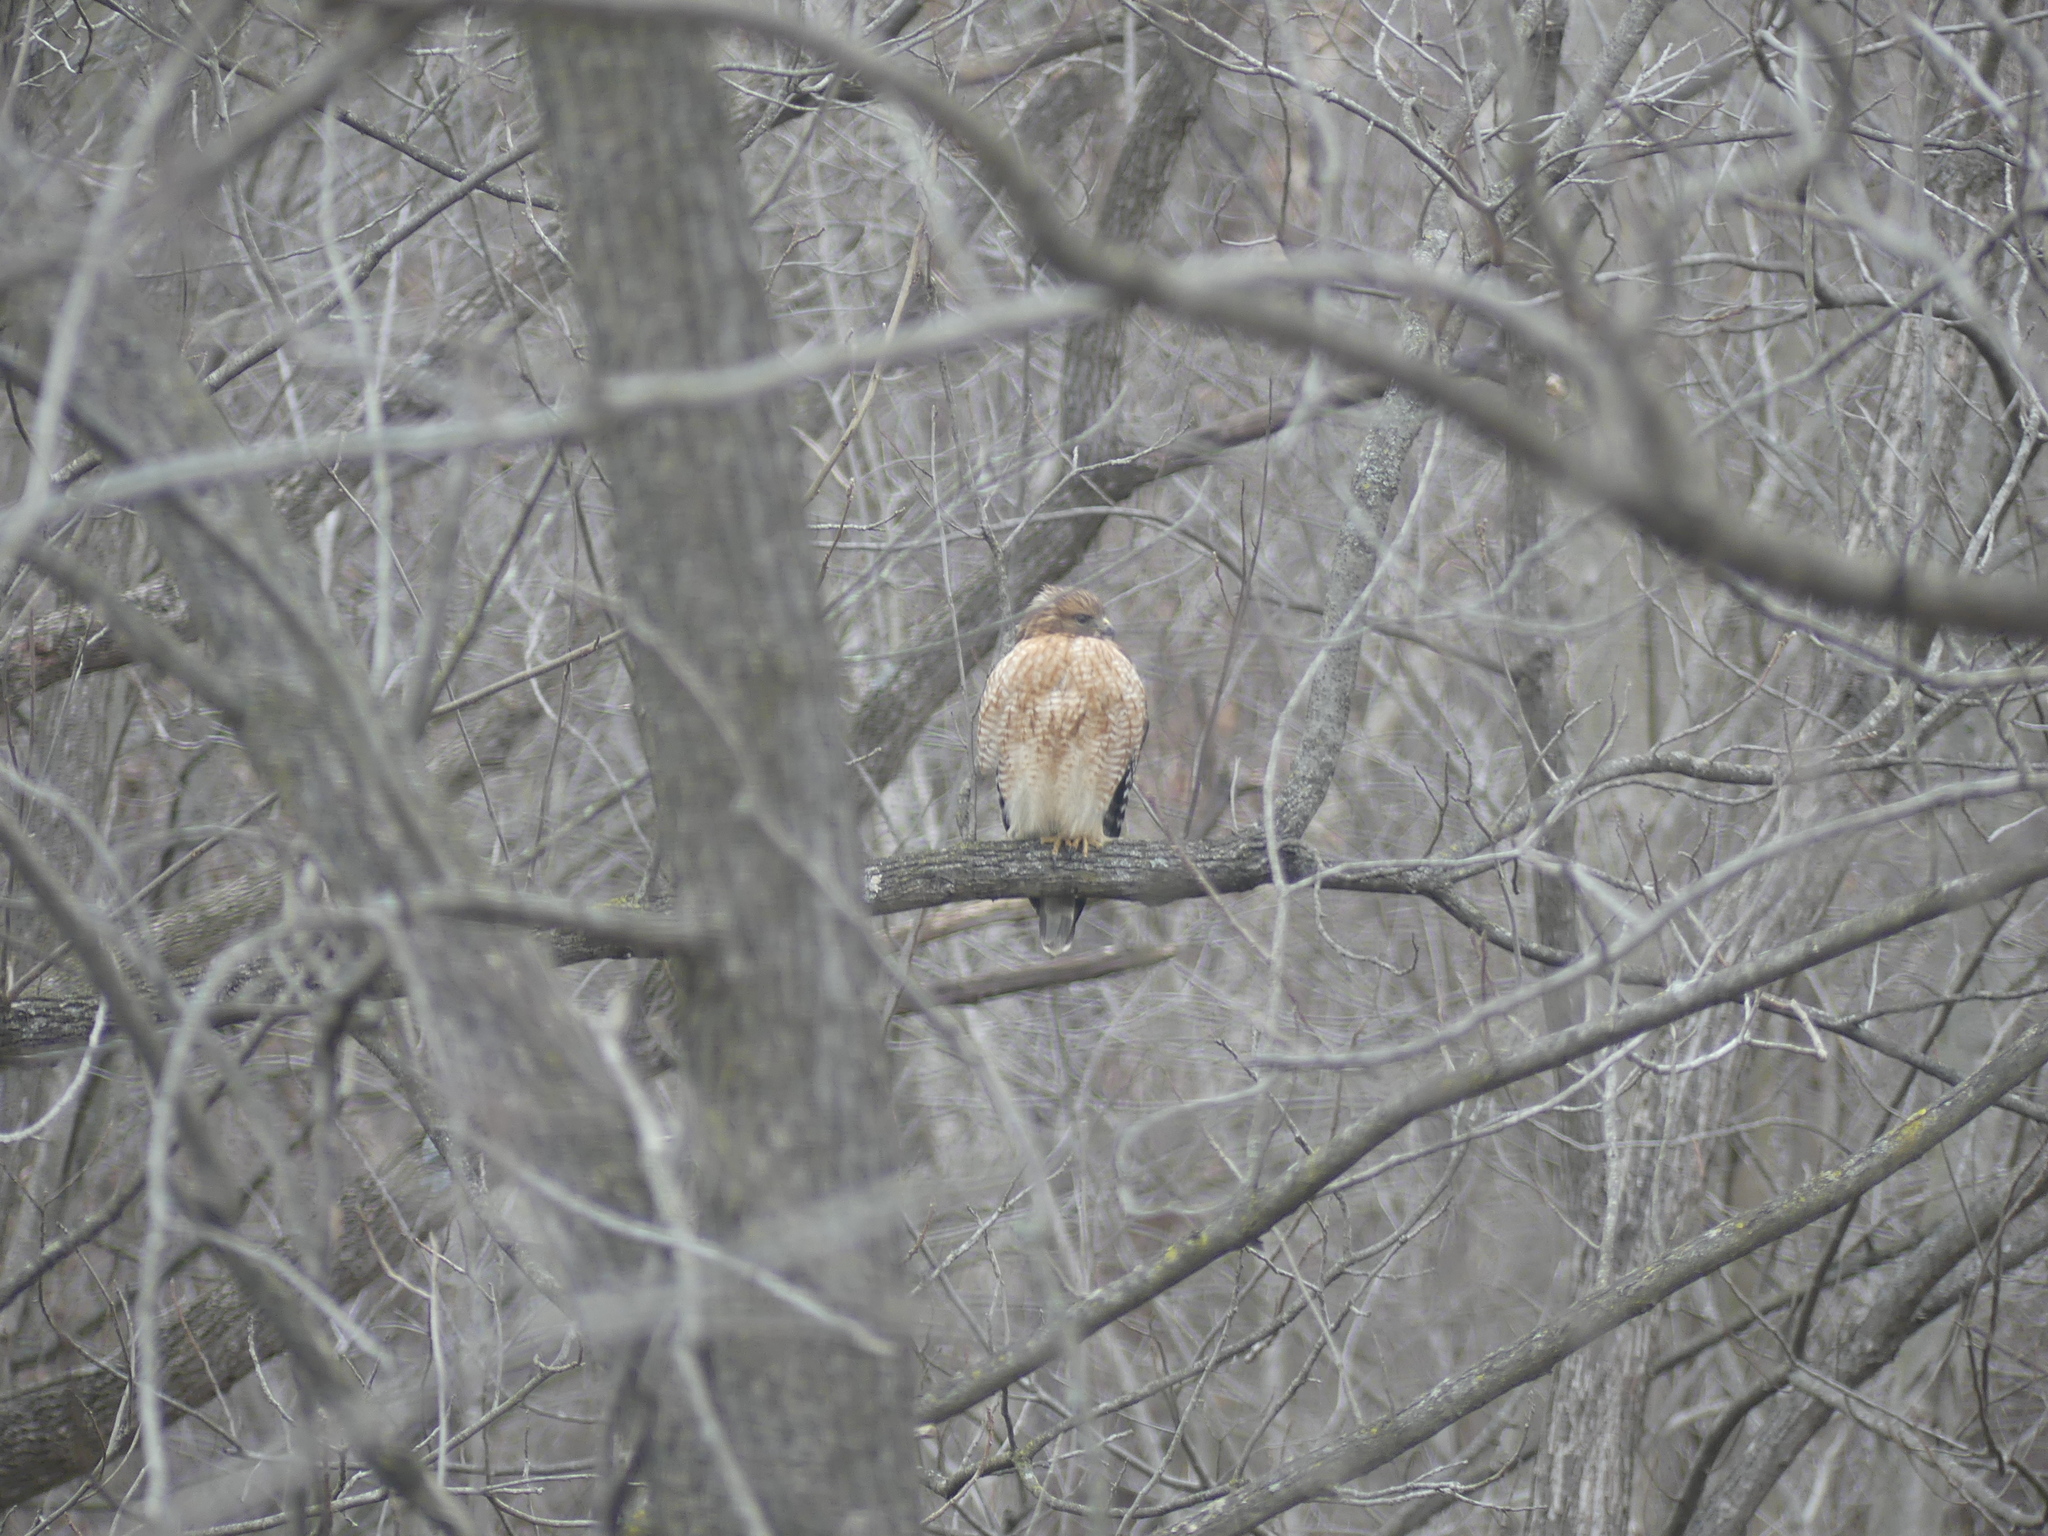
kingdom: Animalia
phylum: Chordata
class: Aves
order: Accipitriformes
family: Accipitridae
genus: Buteo
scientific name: Buteo lineatus
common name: Red-shouldered hawk
